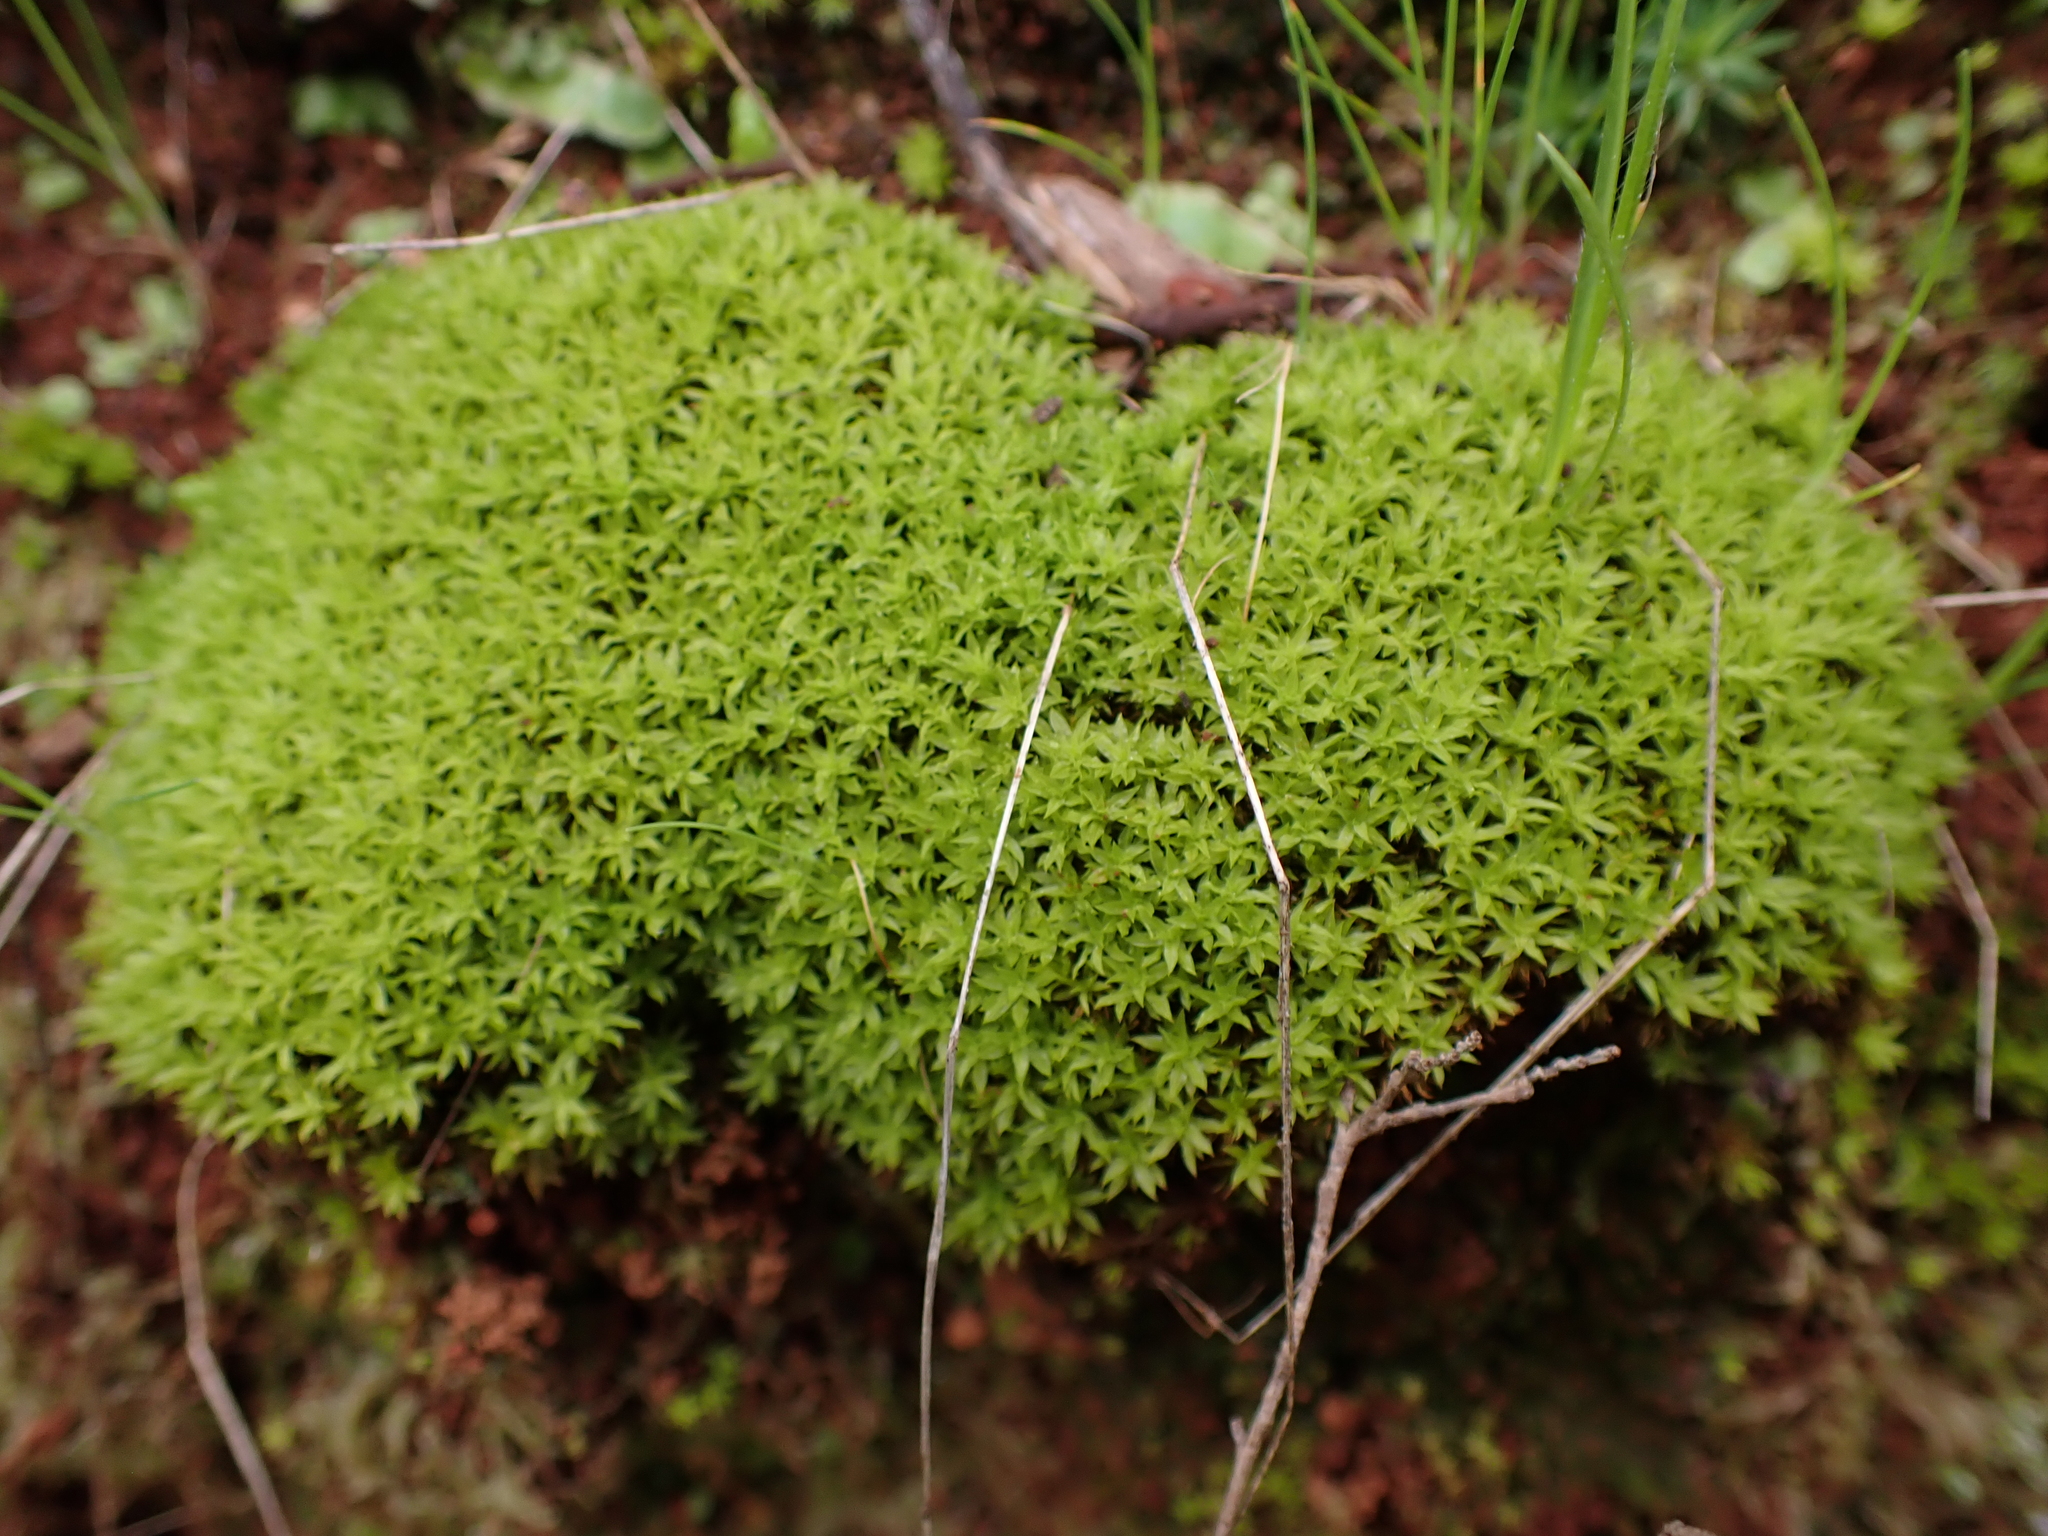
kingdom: Plantae
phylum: Bryophyta
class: Bryopsida
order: Pottiales
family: Pottiaceae
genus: Barbula
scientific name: Barbula calycina
